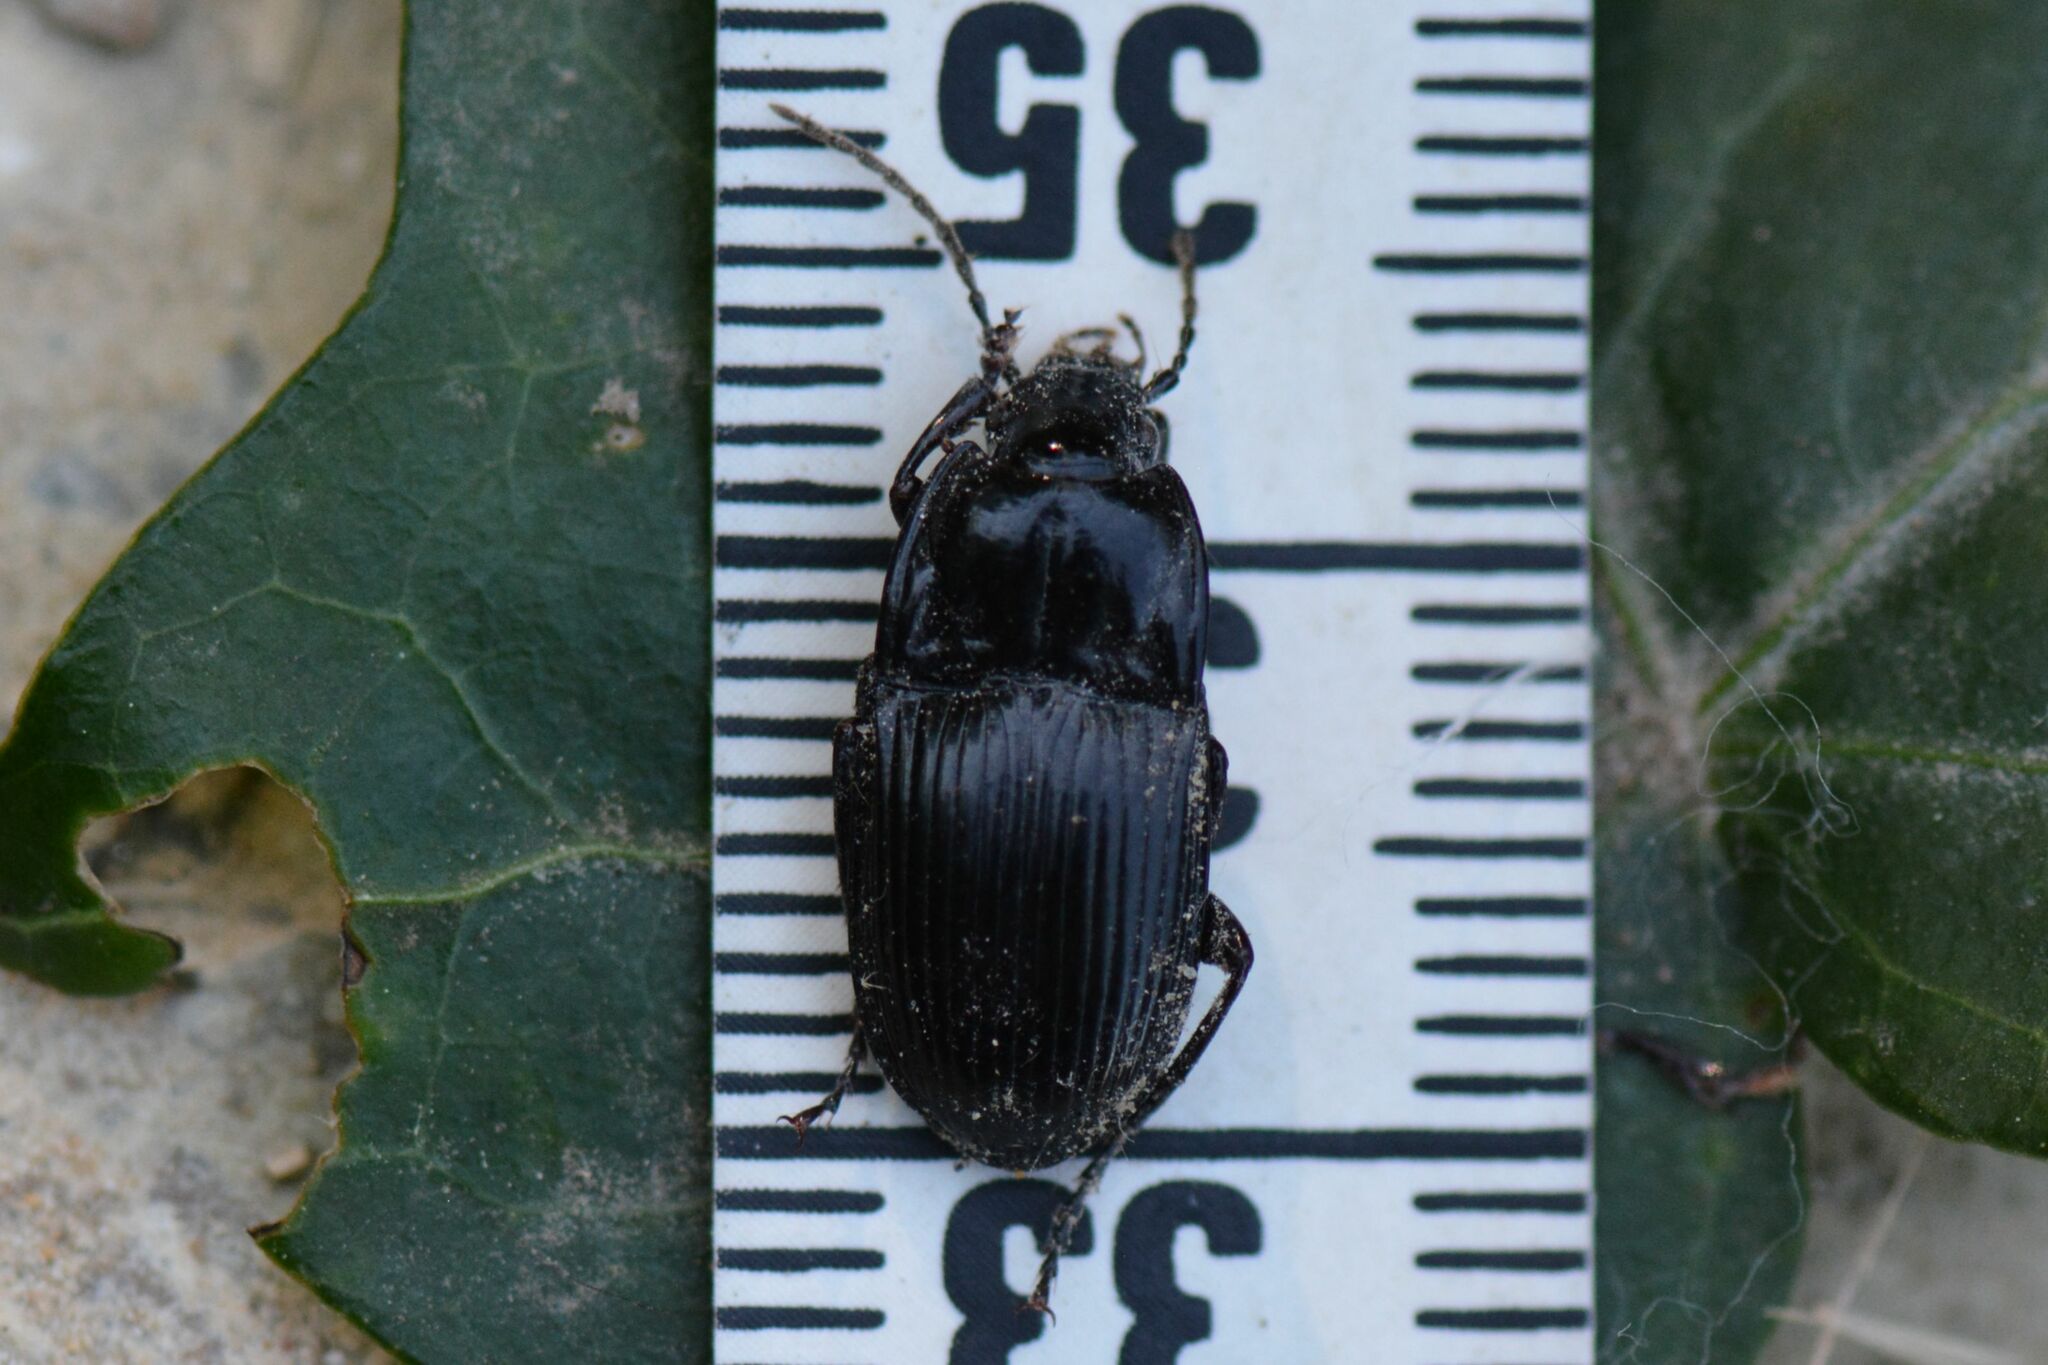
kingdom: Animalia
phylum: Arthropoda
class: Insecta
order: Coleoptera
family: Carabidae
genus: Abax
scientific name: Abax ovalis
